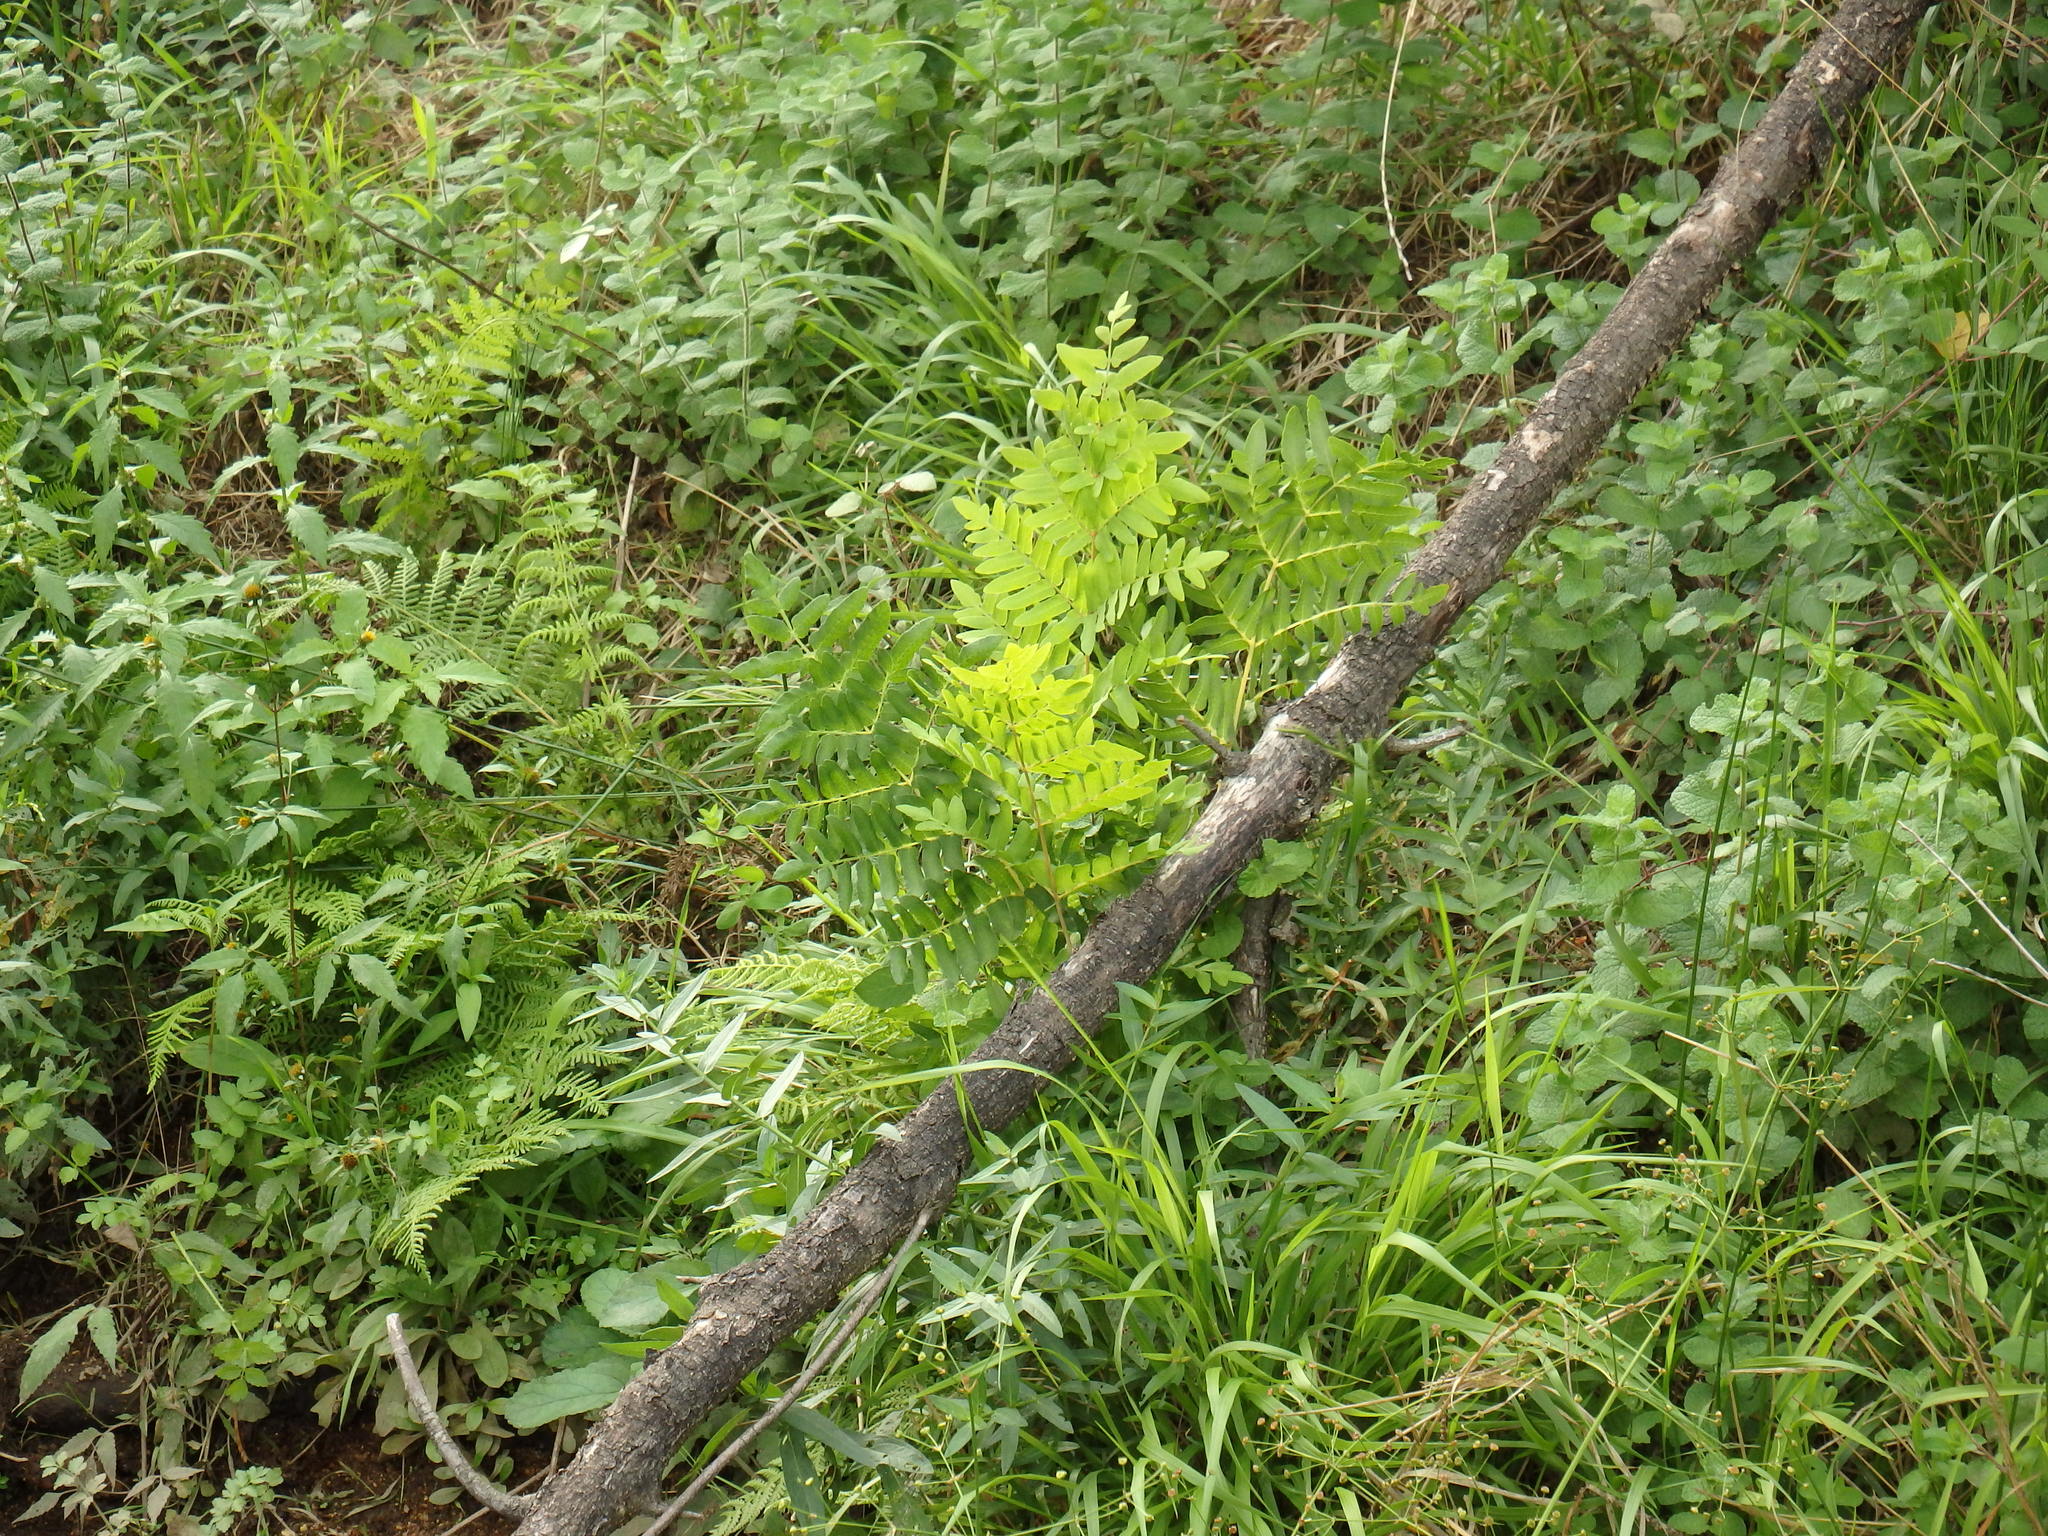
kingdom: Plantae
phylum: Tracheophyta
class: Polypodiopsida
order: Osmundales
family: Osmundaceae
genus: Osmunda
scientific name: Osmunda regalis
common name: Royal fern
